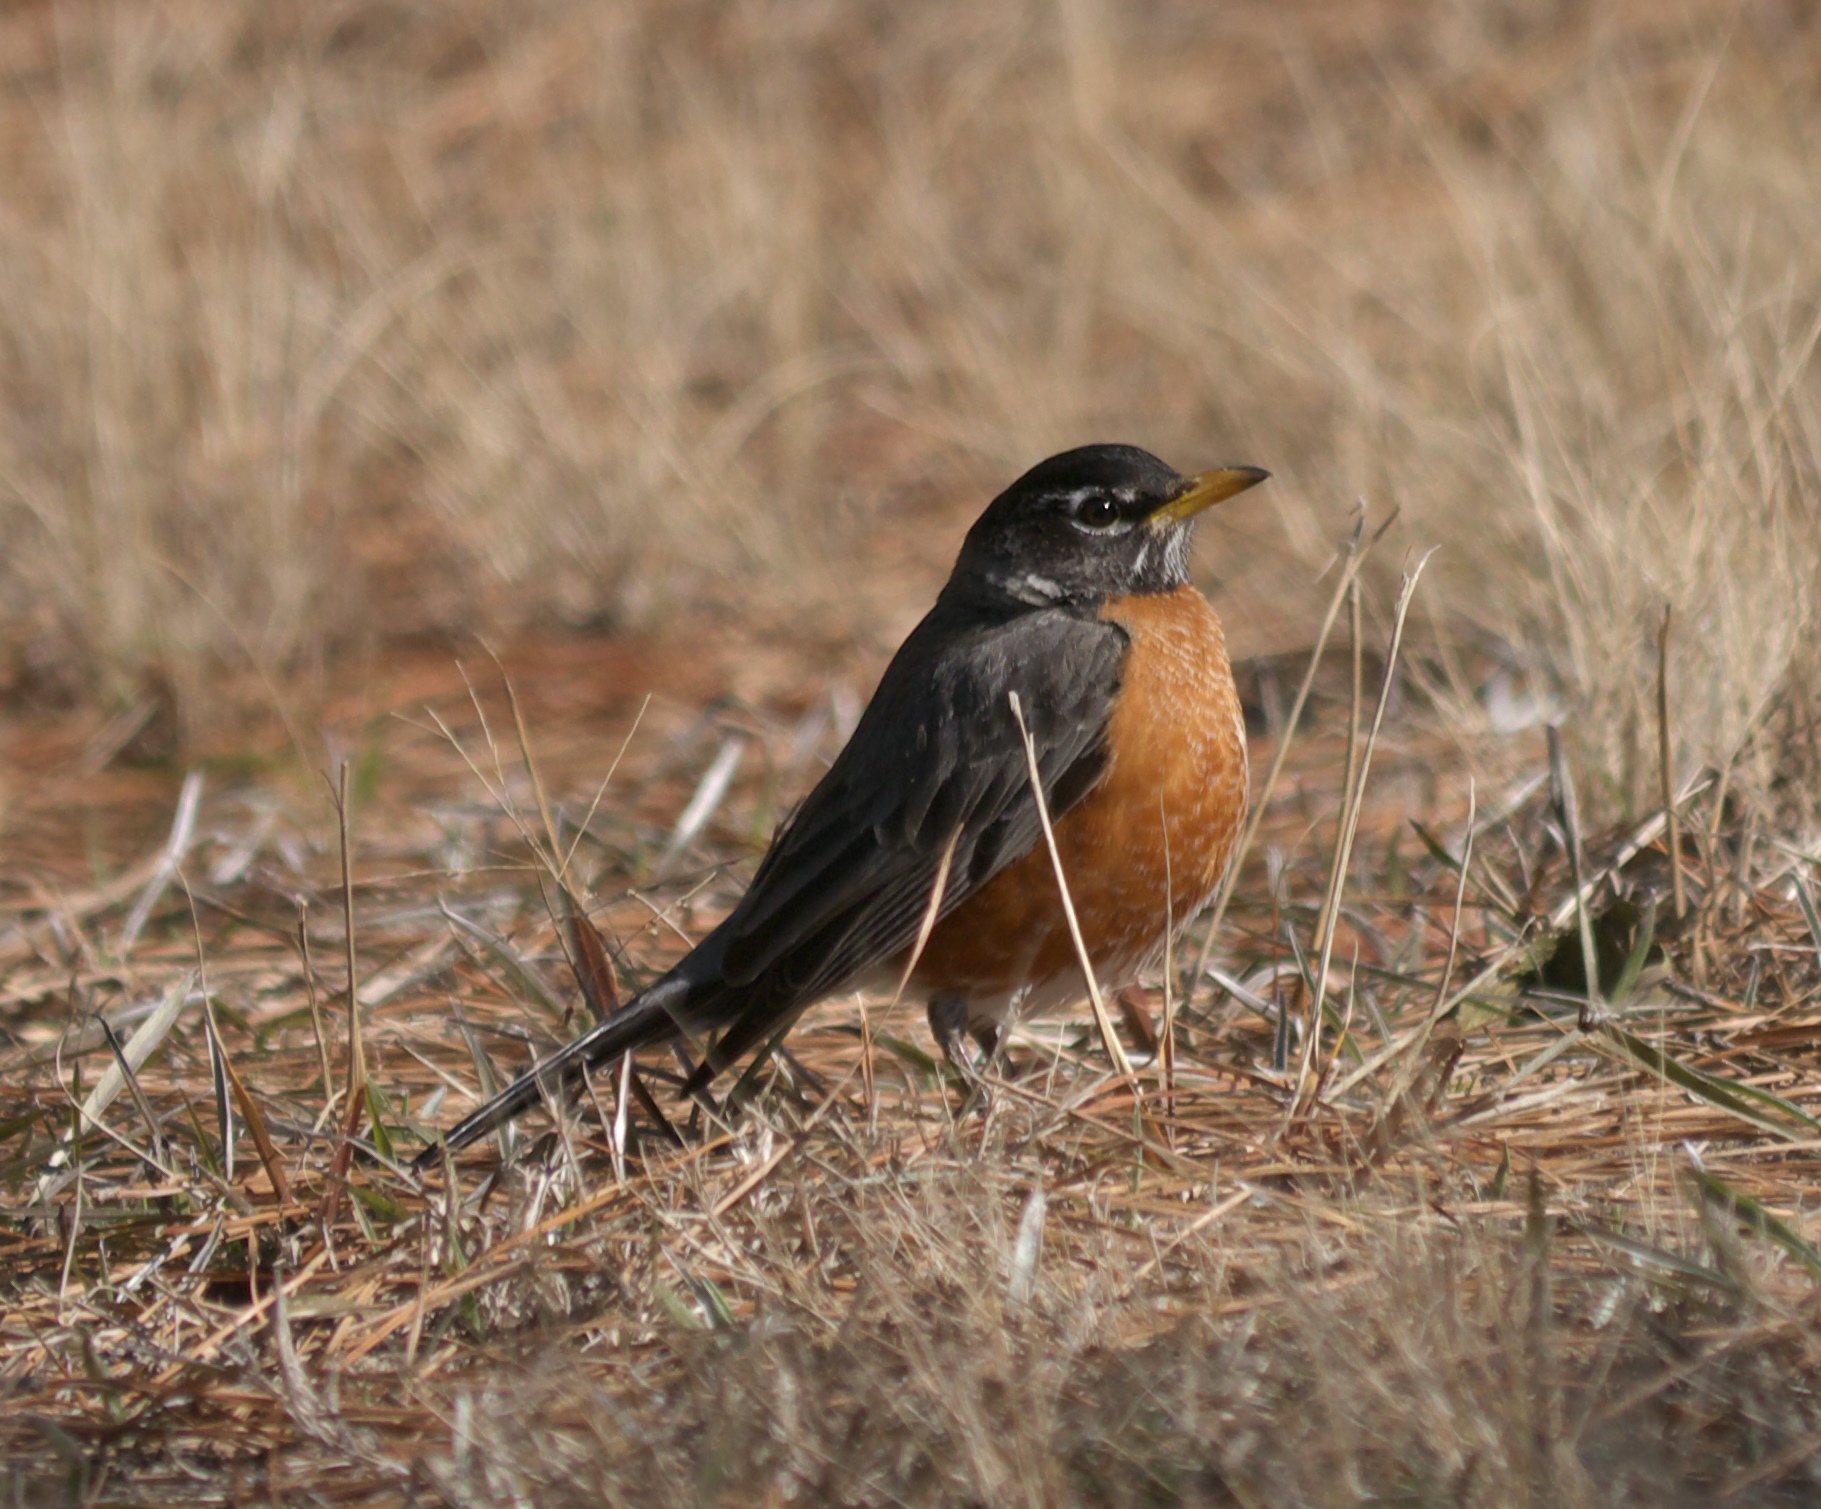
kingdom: Animalia
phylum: Chordata
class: Aves
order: Passeriformes
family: Turdidae
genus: Turdus
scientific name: Turdus migratorius
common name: American robin
